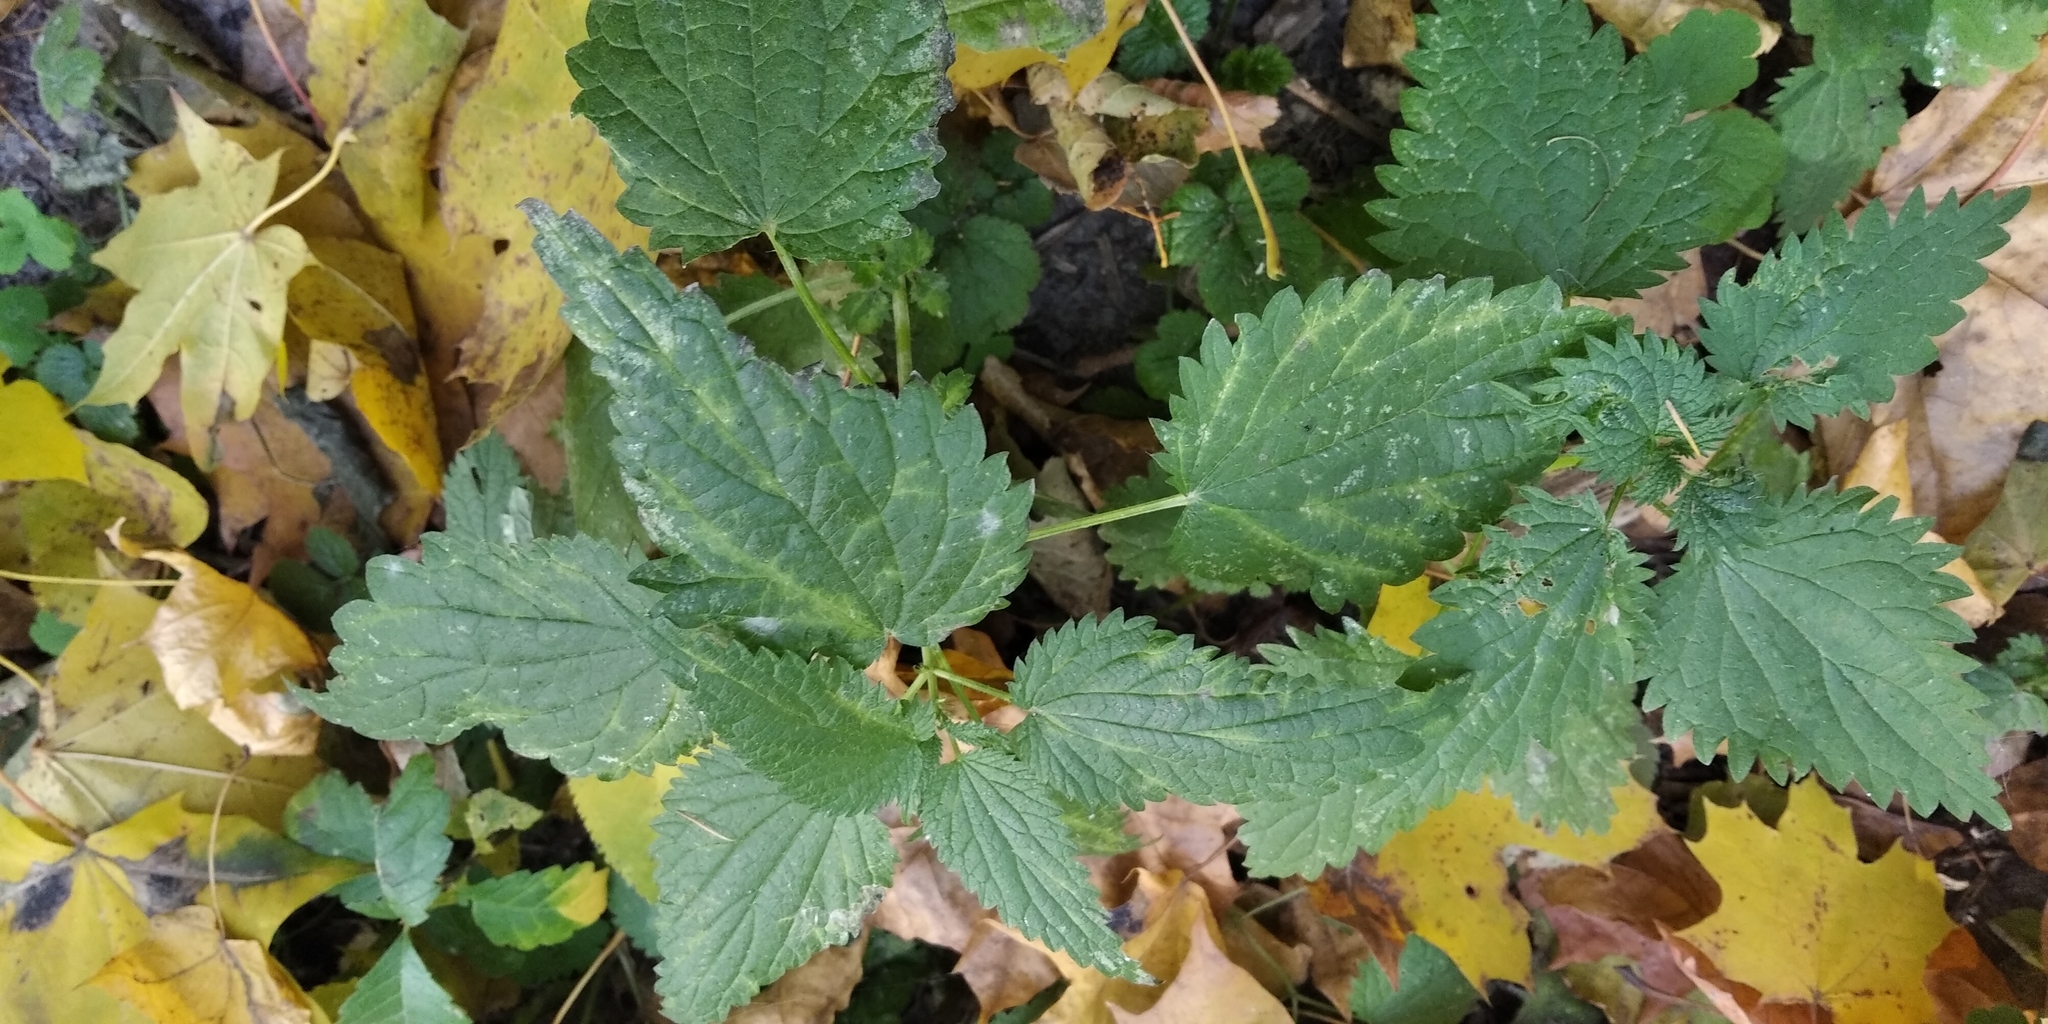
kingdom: Plantae
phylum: Tracheophyta
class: Magnoliopsida
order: Rosales
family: Urticaceae
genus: Urtica
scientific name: Urtica dioica
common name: Common nettle
